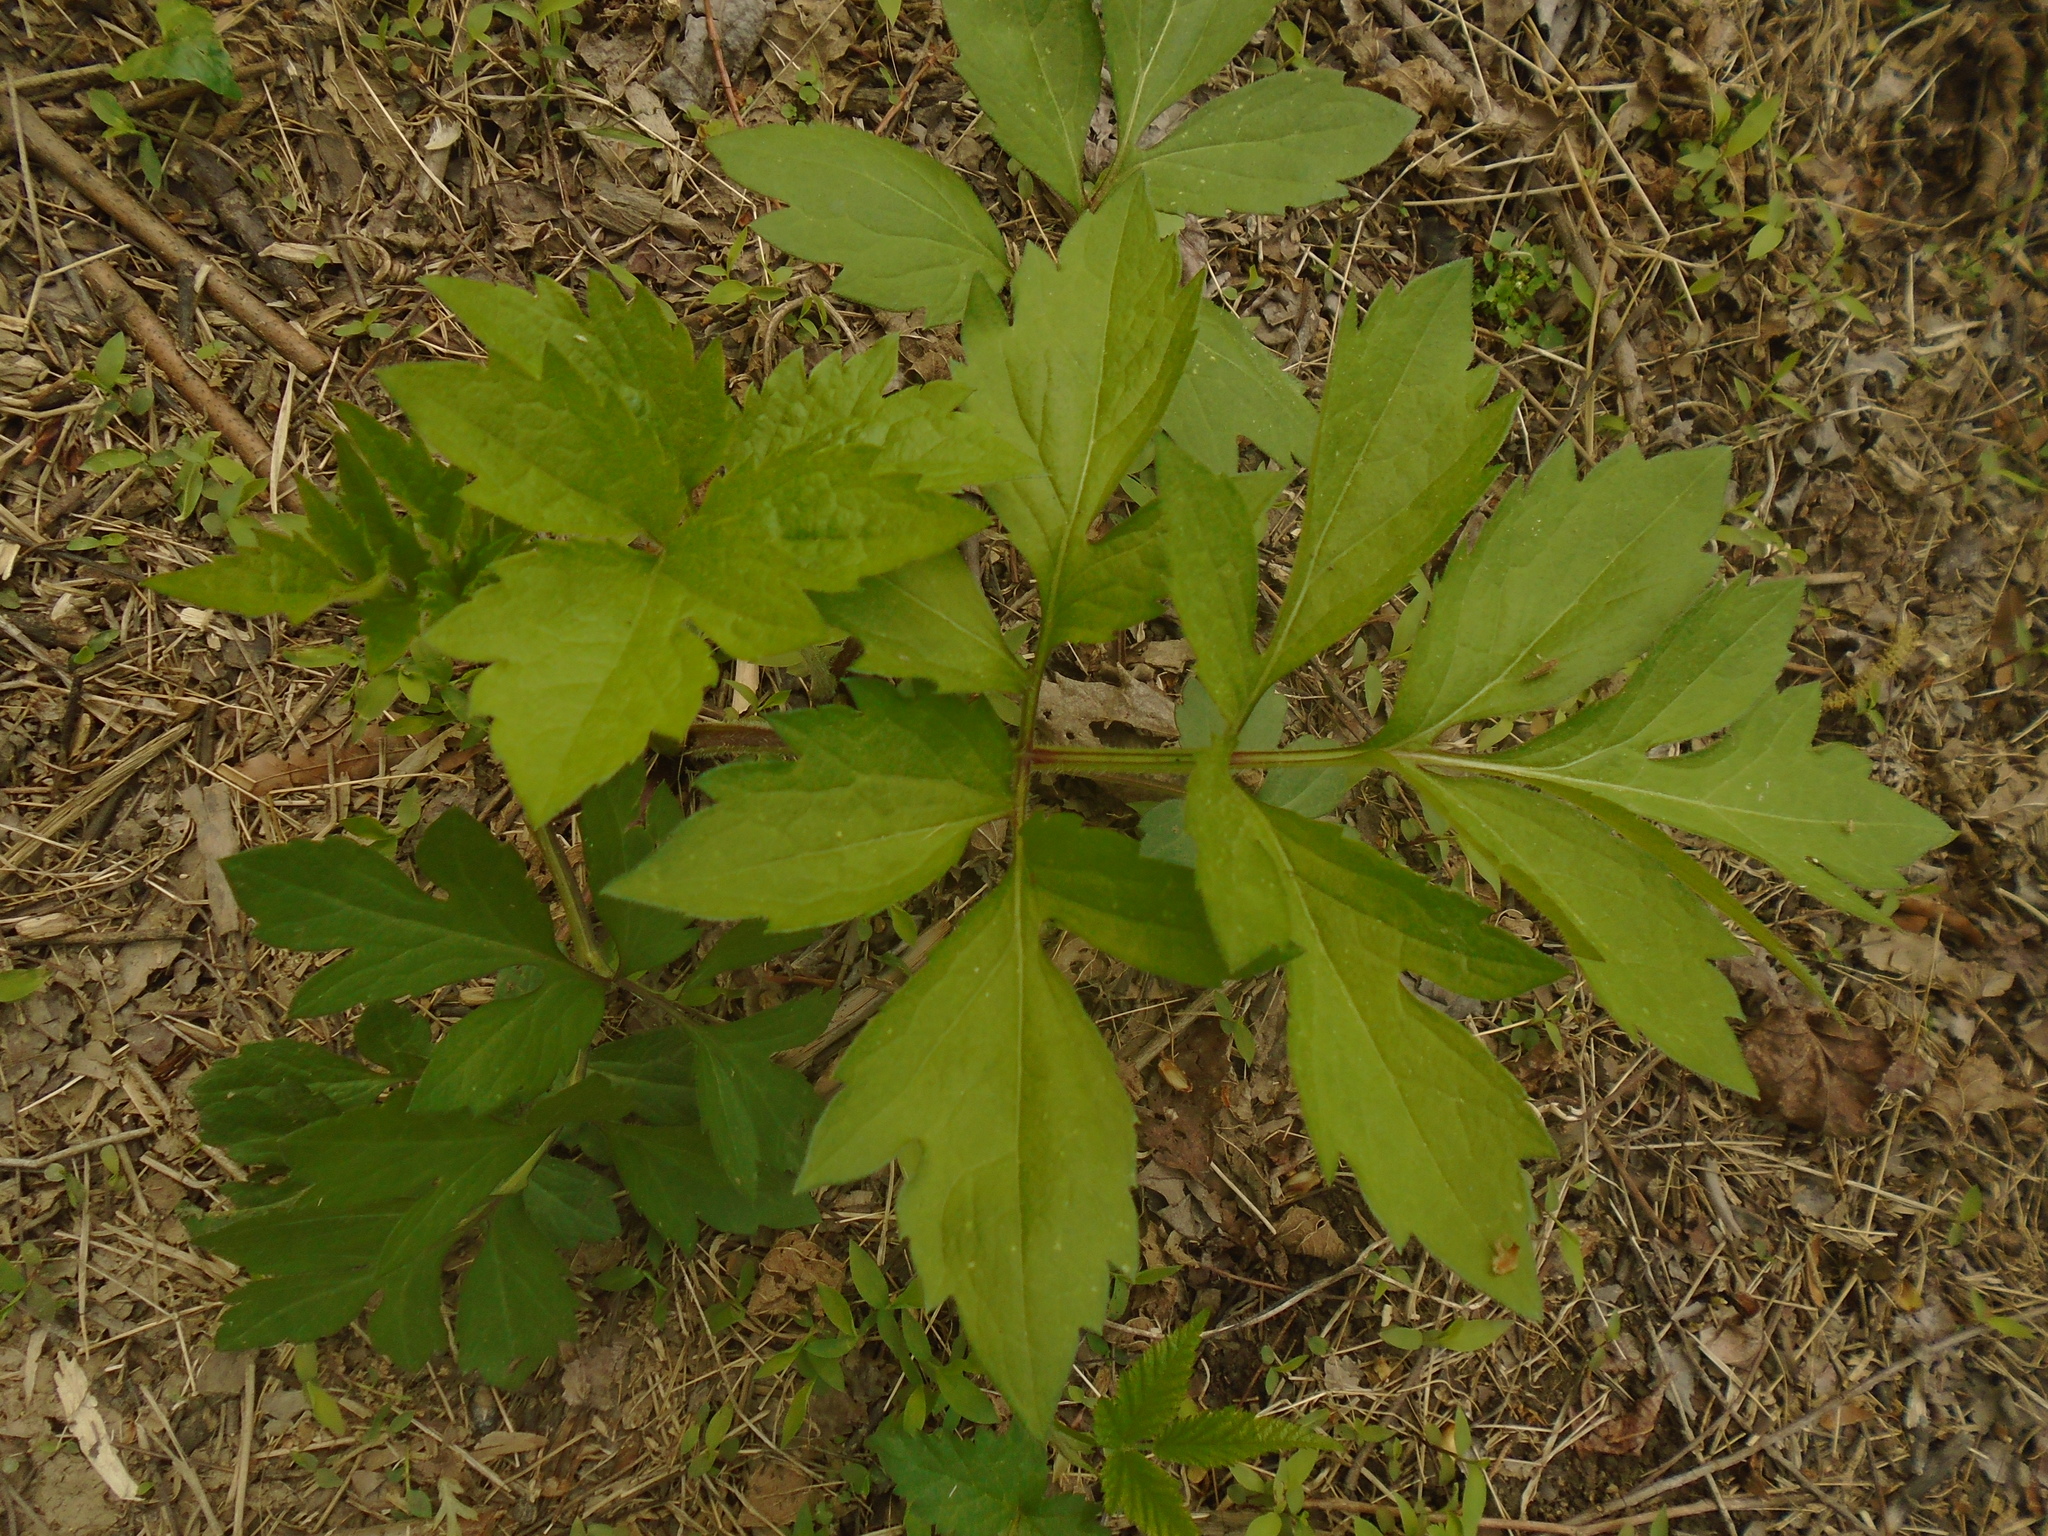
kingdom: Plantae
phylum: Tracheophyta
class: Magnoliopsida
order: Asterales
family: Asteraceae
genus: Rudbeckia
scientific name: Rudbeckia laciniata
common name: Coneflower
